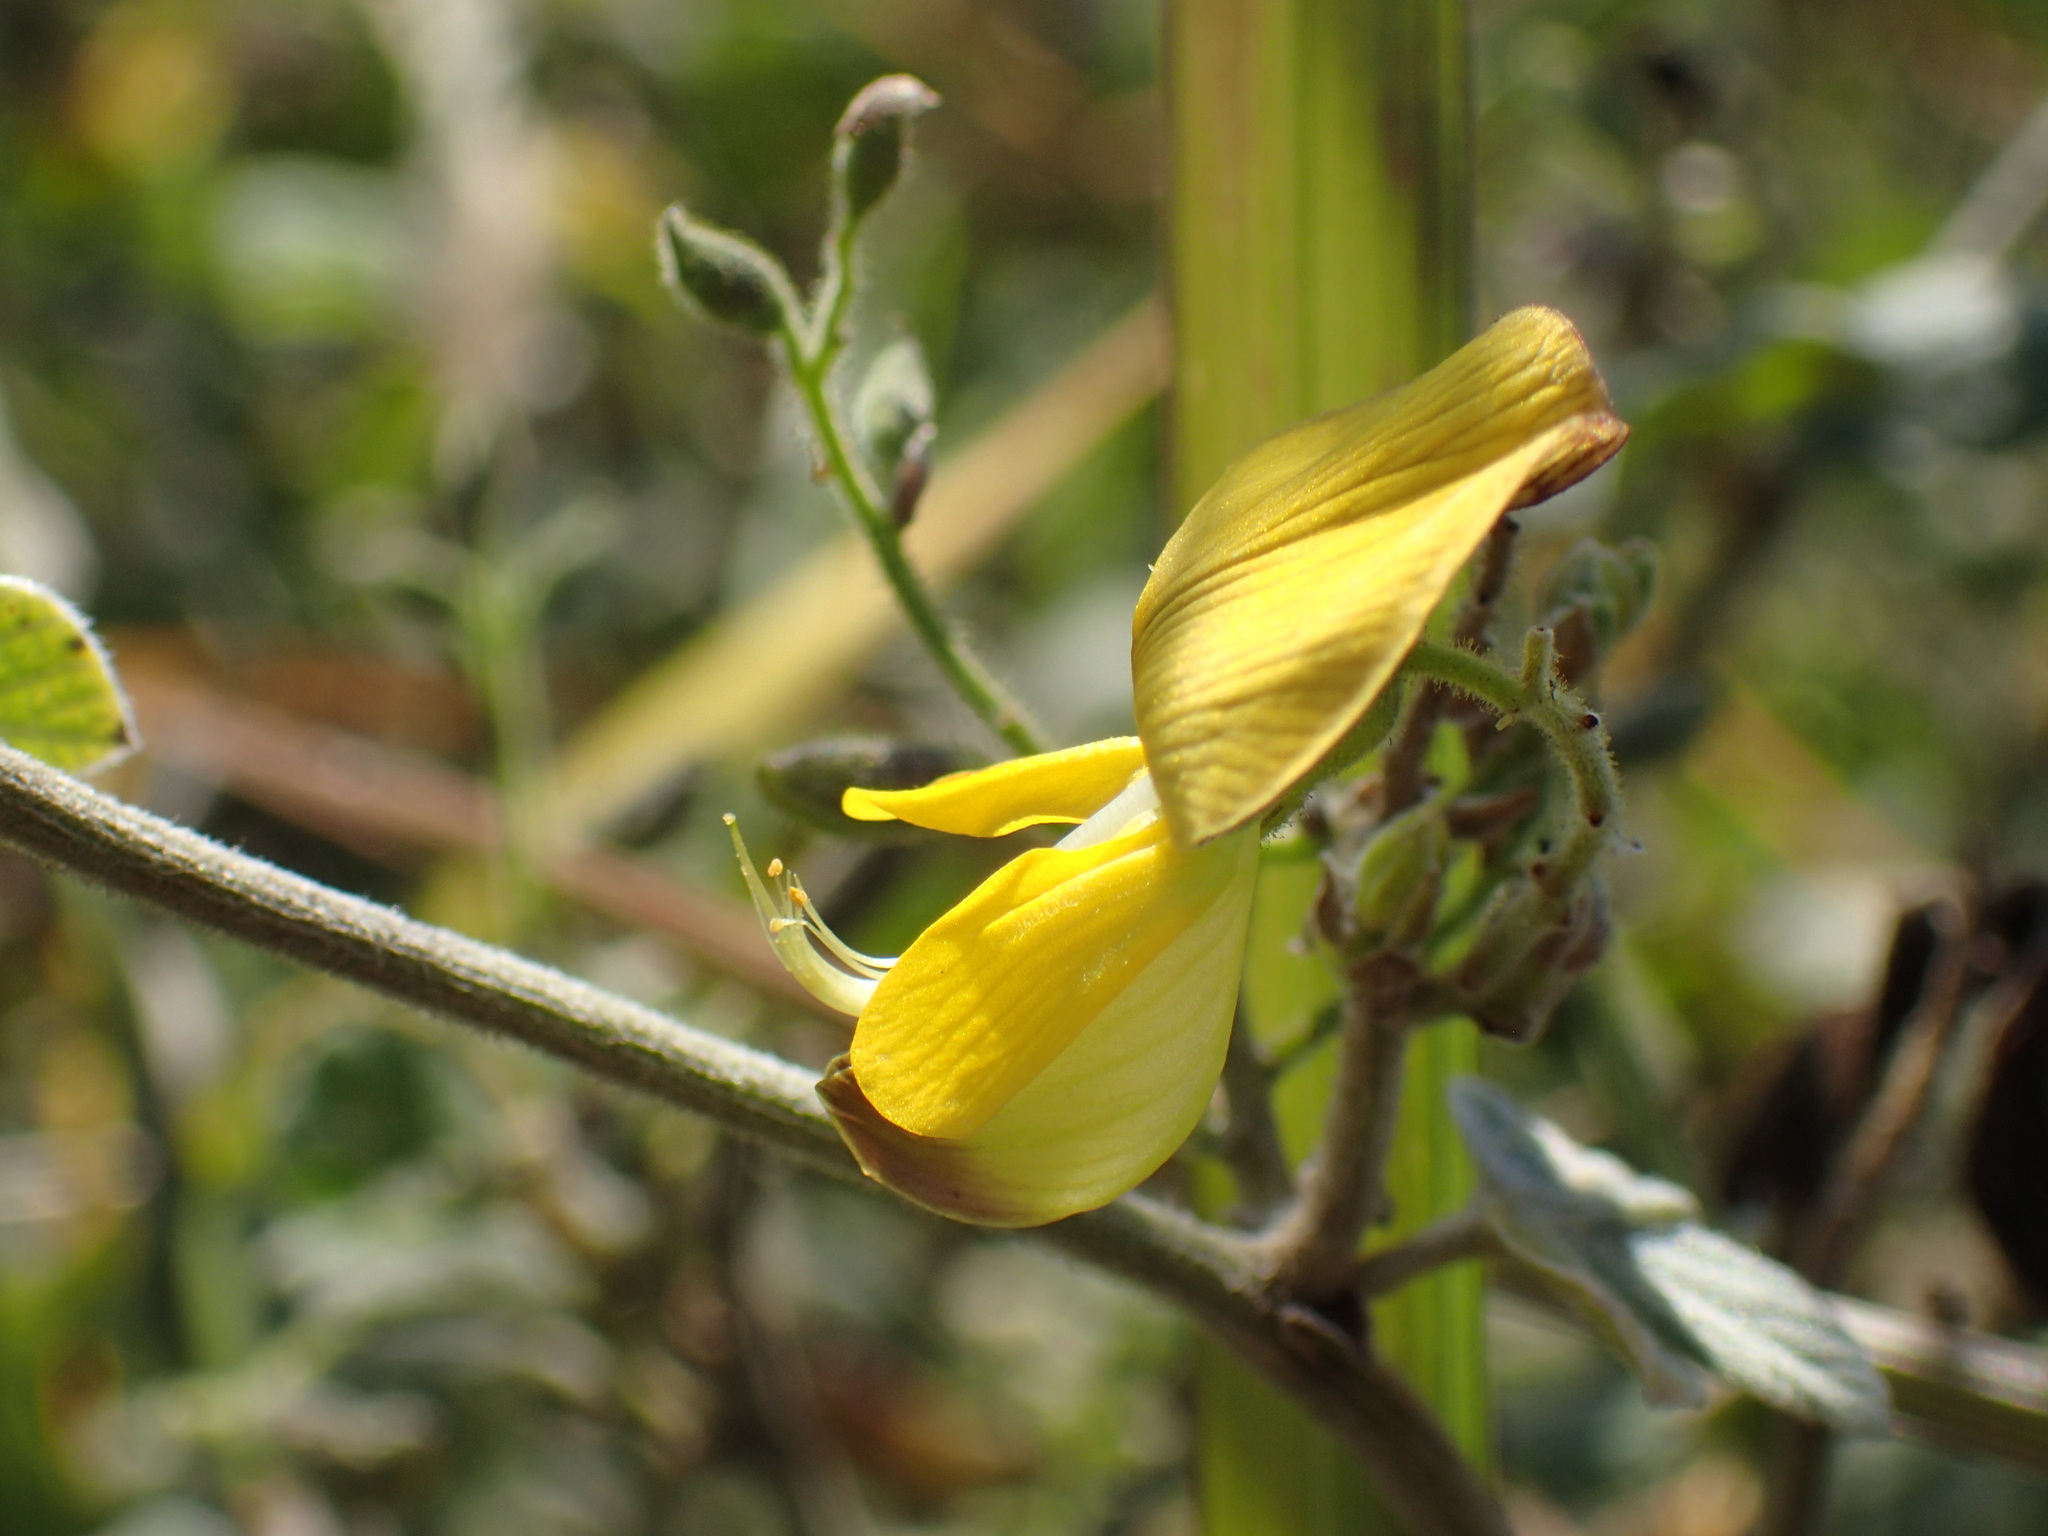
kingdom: Plantae
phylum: Tracheophyta
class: Magnoliopsida
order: Fabales
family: Fabaceae
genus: Rhynchosia
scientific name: Rhynchosia caribaea
